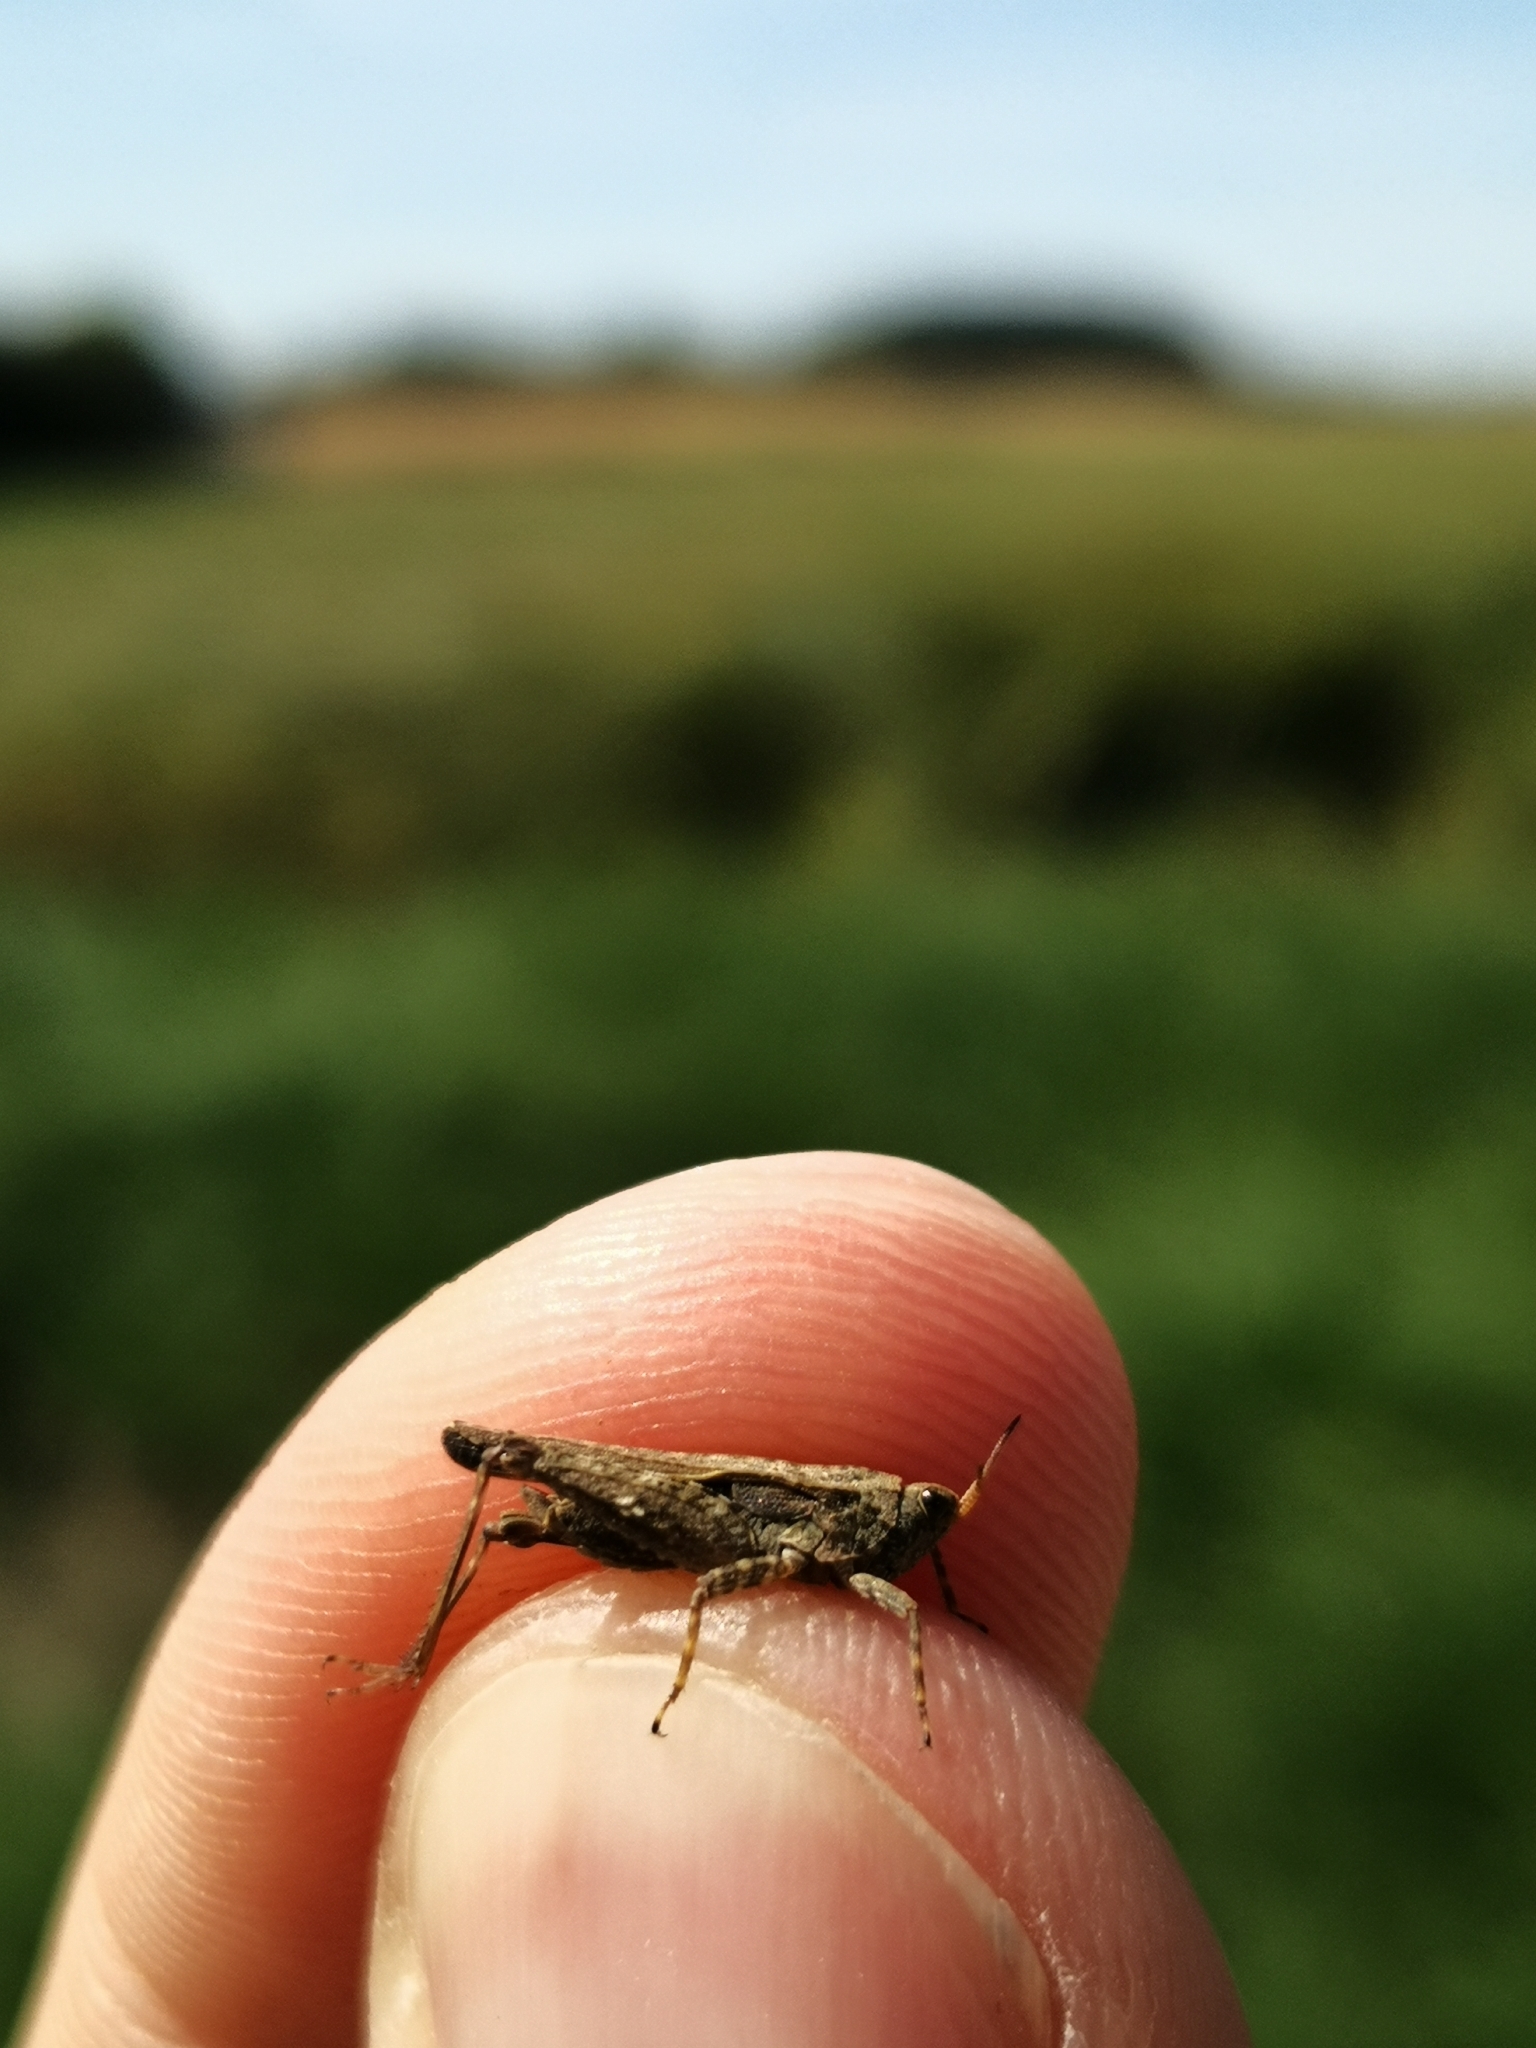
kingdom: Animalia
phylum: Arthropoda
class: Insecta
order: Orthoptera
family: Tetrigidae
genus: Tetrix
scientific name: Tetrix subulata
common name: Slender ground-hopper
